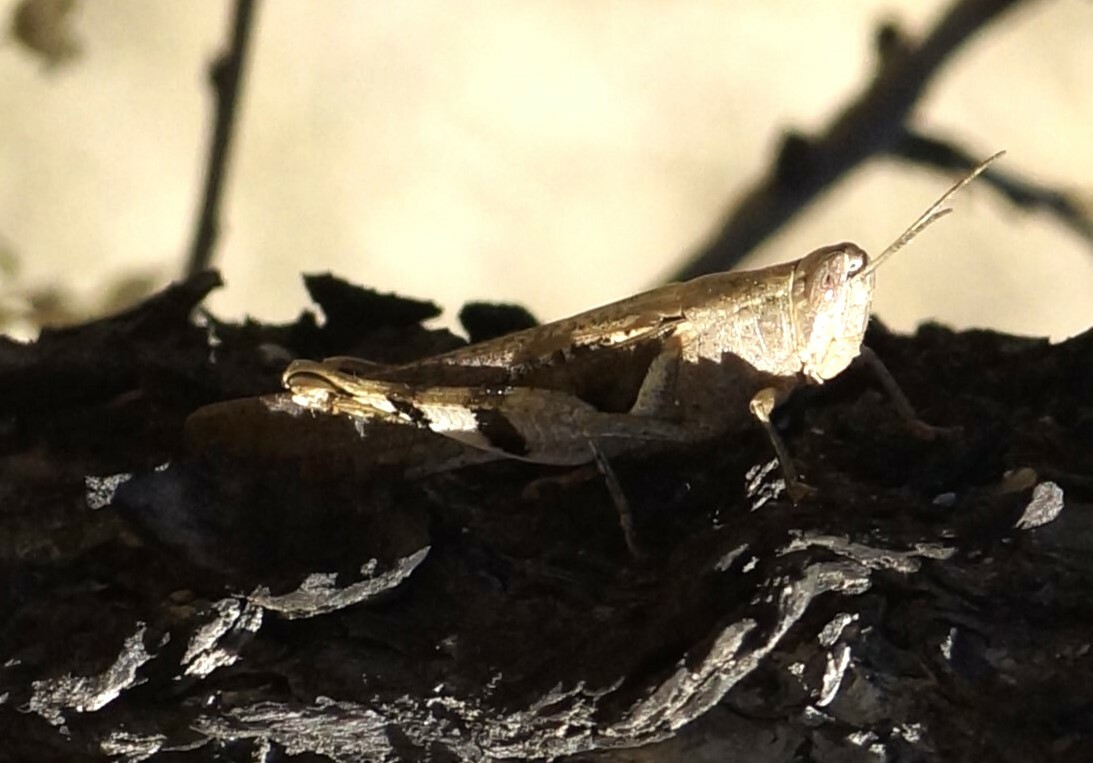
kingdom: Animalia
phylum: Arthropoda
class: Insecta
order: Orthoptera
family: Acrididae
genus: Stenocatantops
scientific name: Stenocatantops angustifrons
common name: Common tropical sharptail
